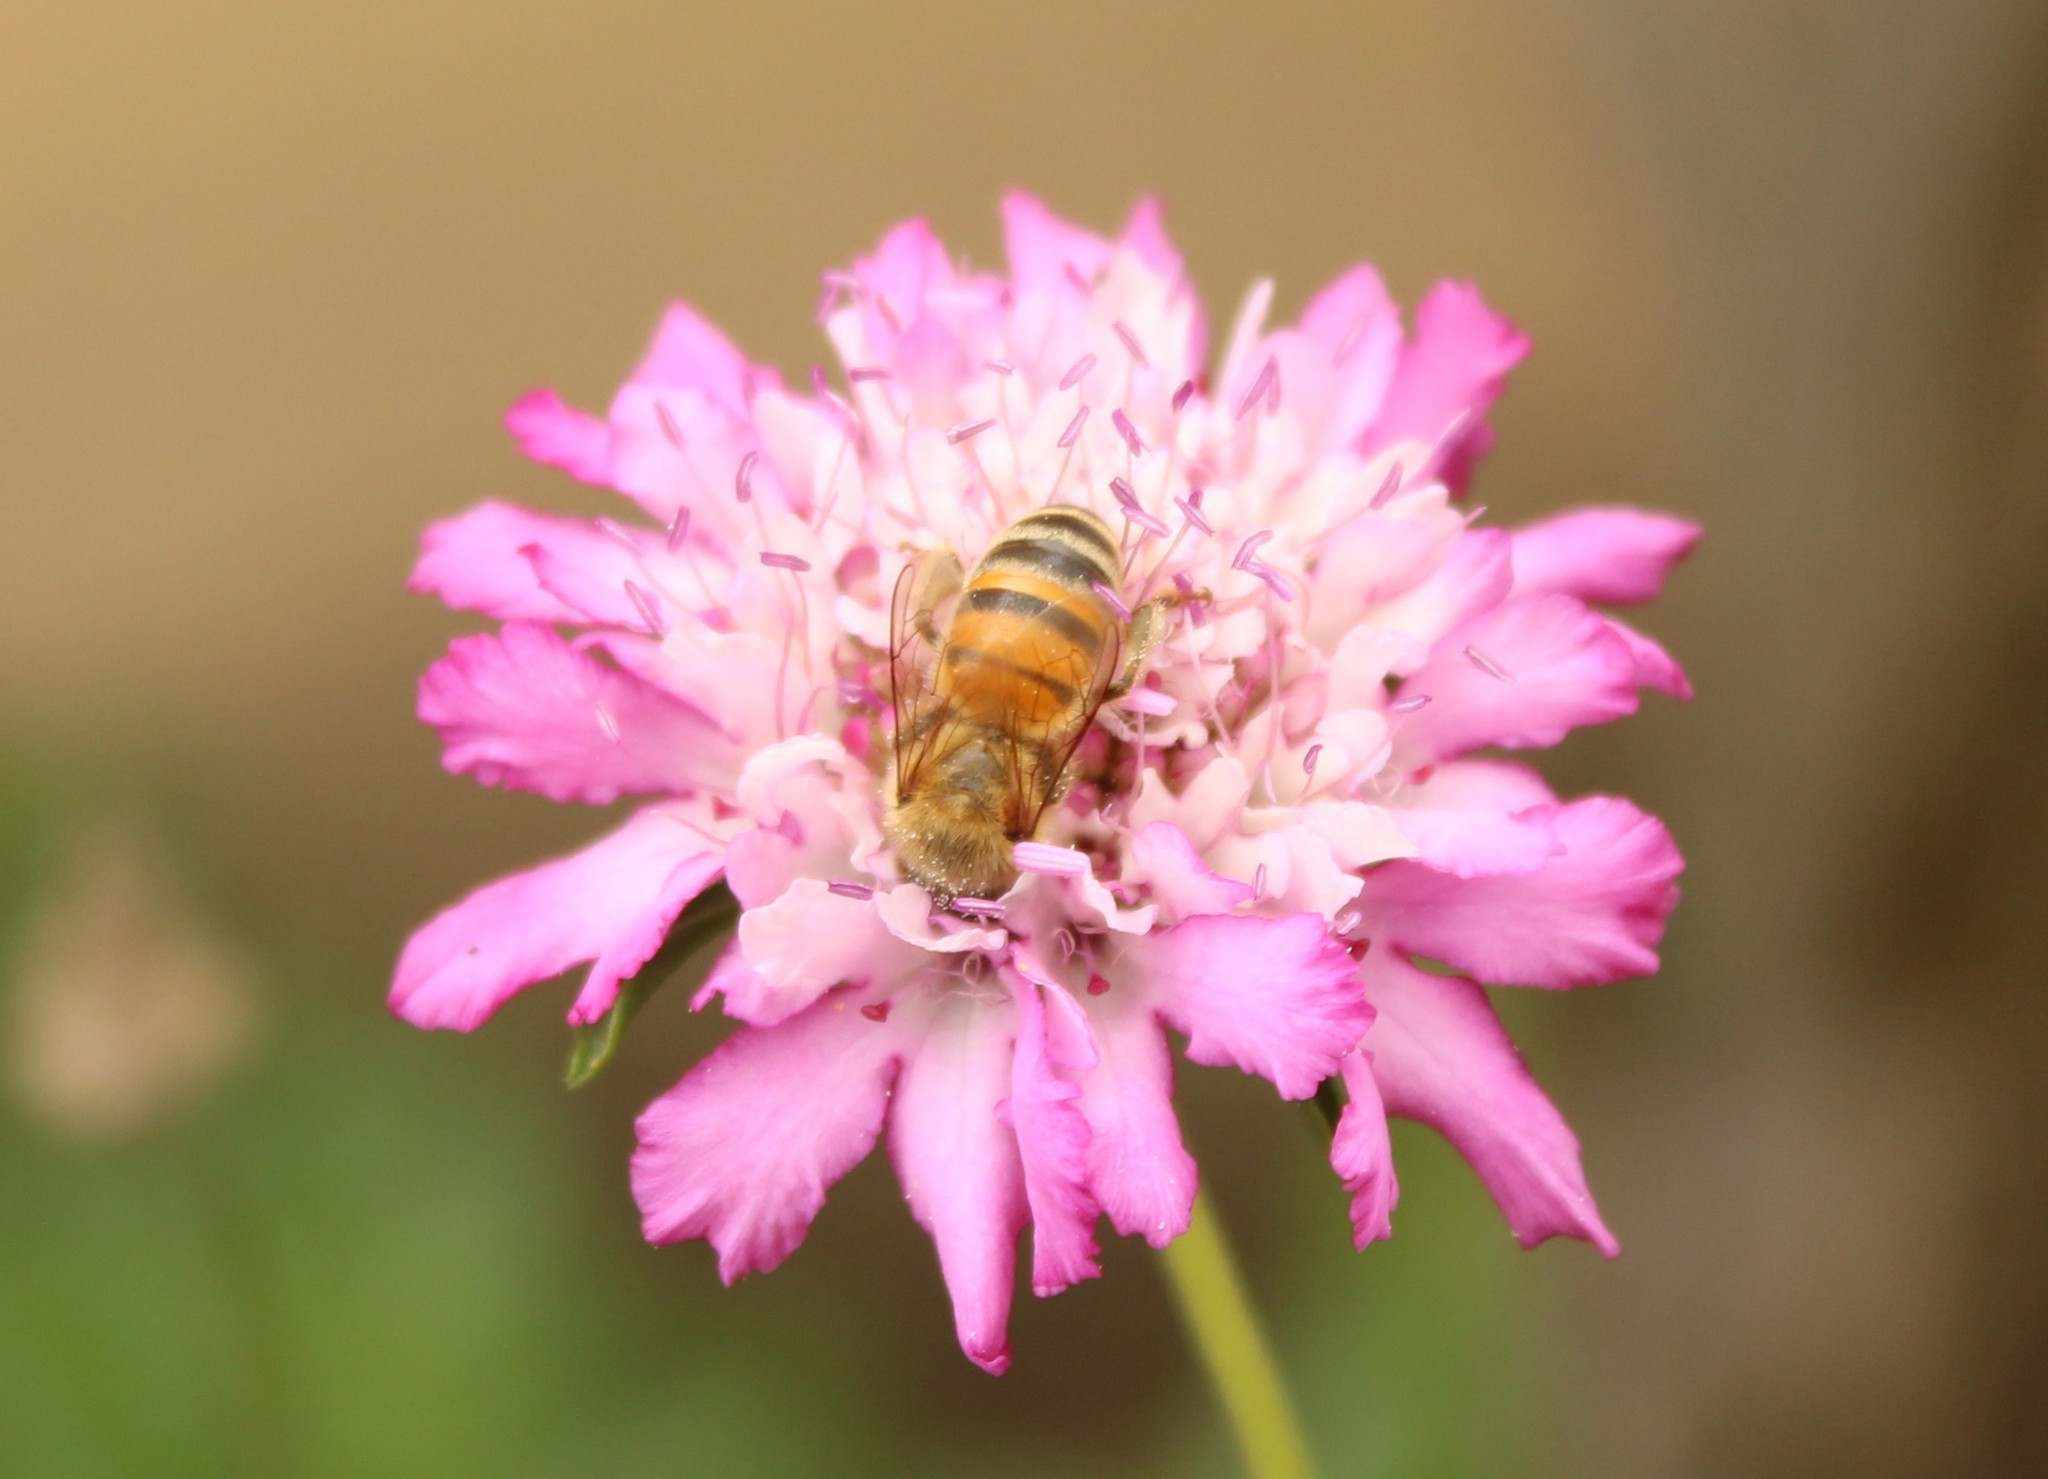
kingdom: Animalia
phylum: Arthropoda
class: Insecta
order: Hymenoptera
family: Apidae
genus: Apis
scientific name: Apis mellifera
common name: Honey bee
